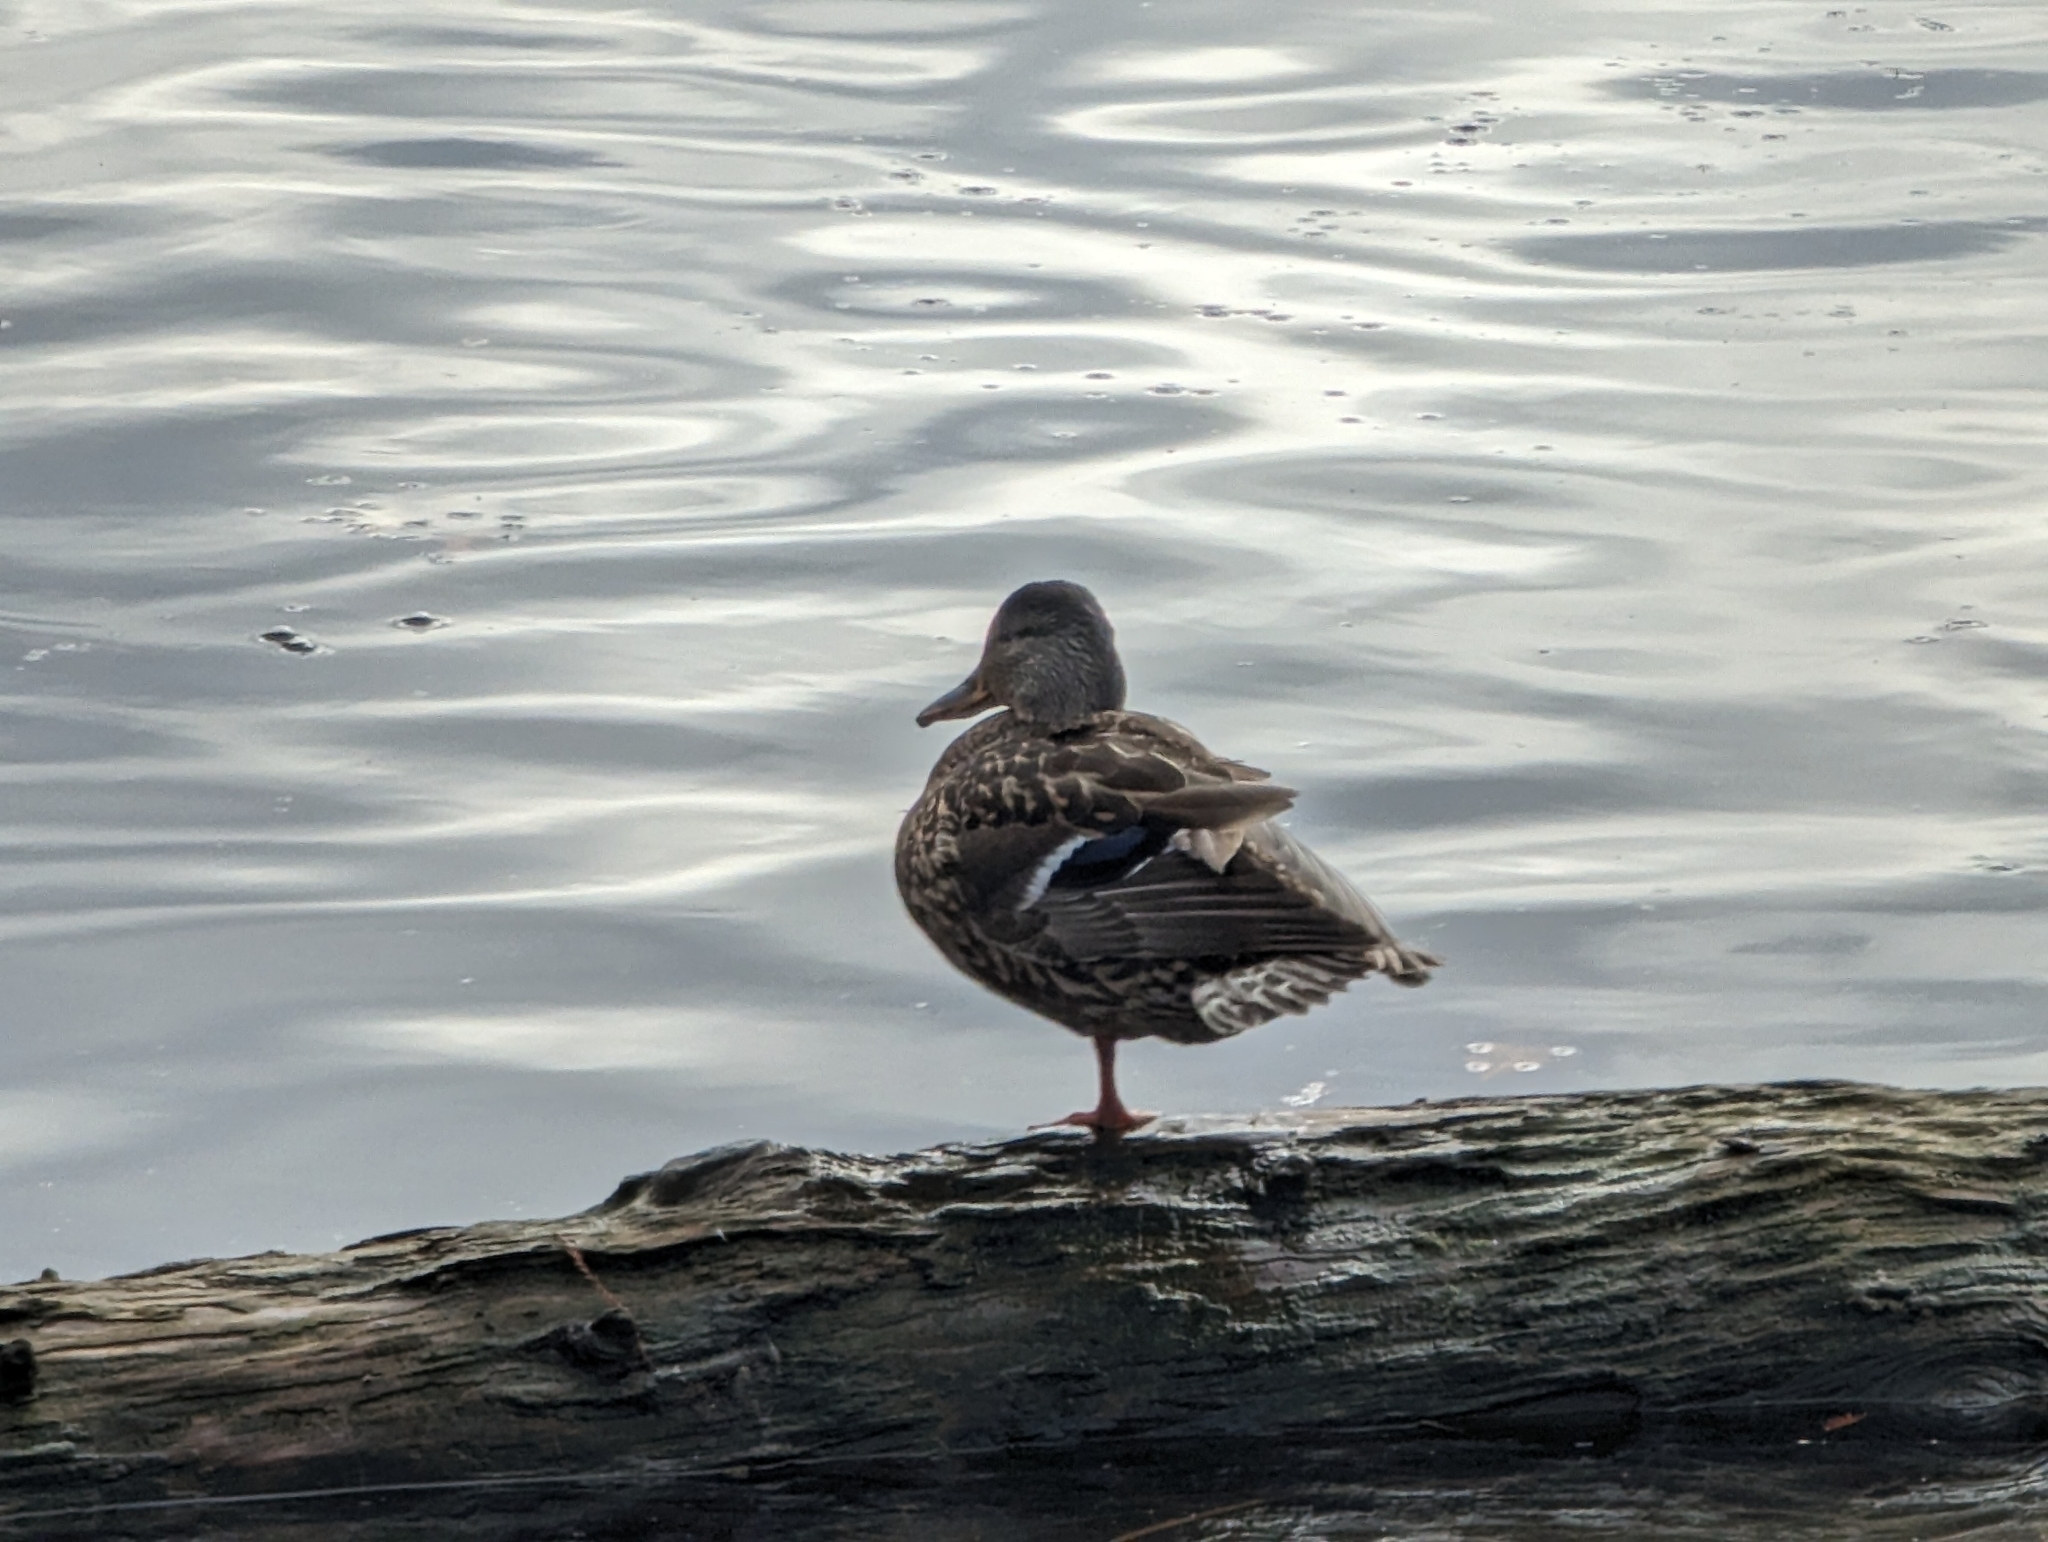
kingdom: Animalia
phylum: Chordata
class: Aves
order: Anseriformes
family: Anatidae
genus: Anas
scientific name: Anas platyrhynchos
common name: Mallard
